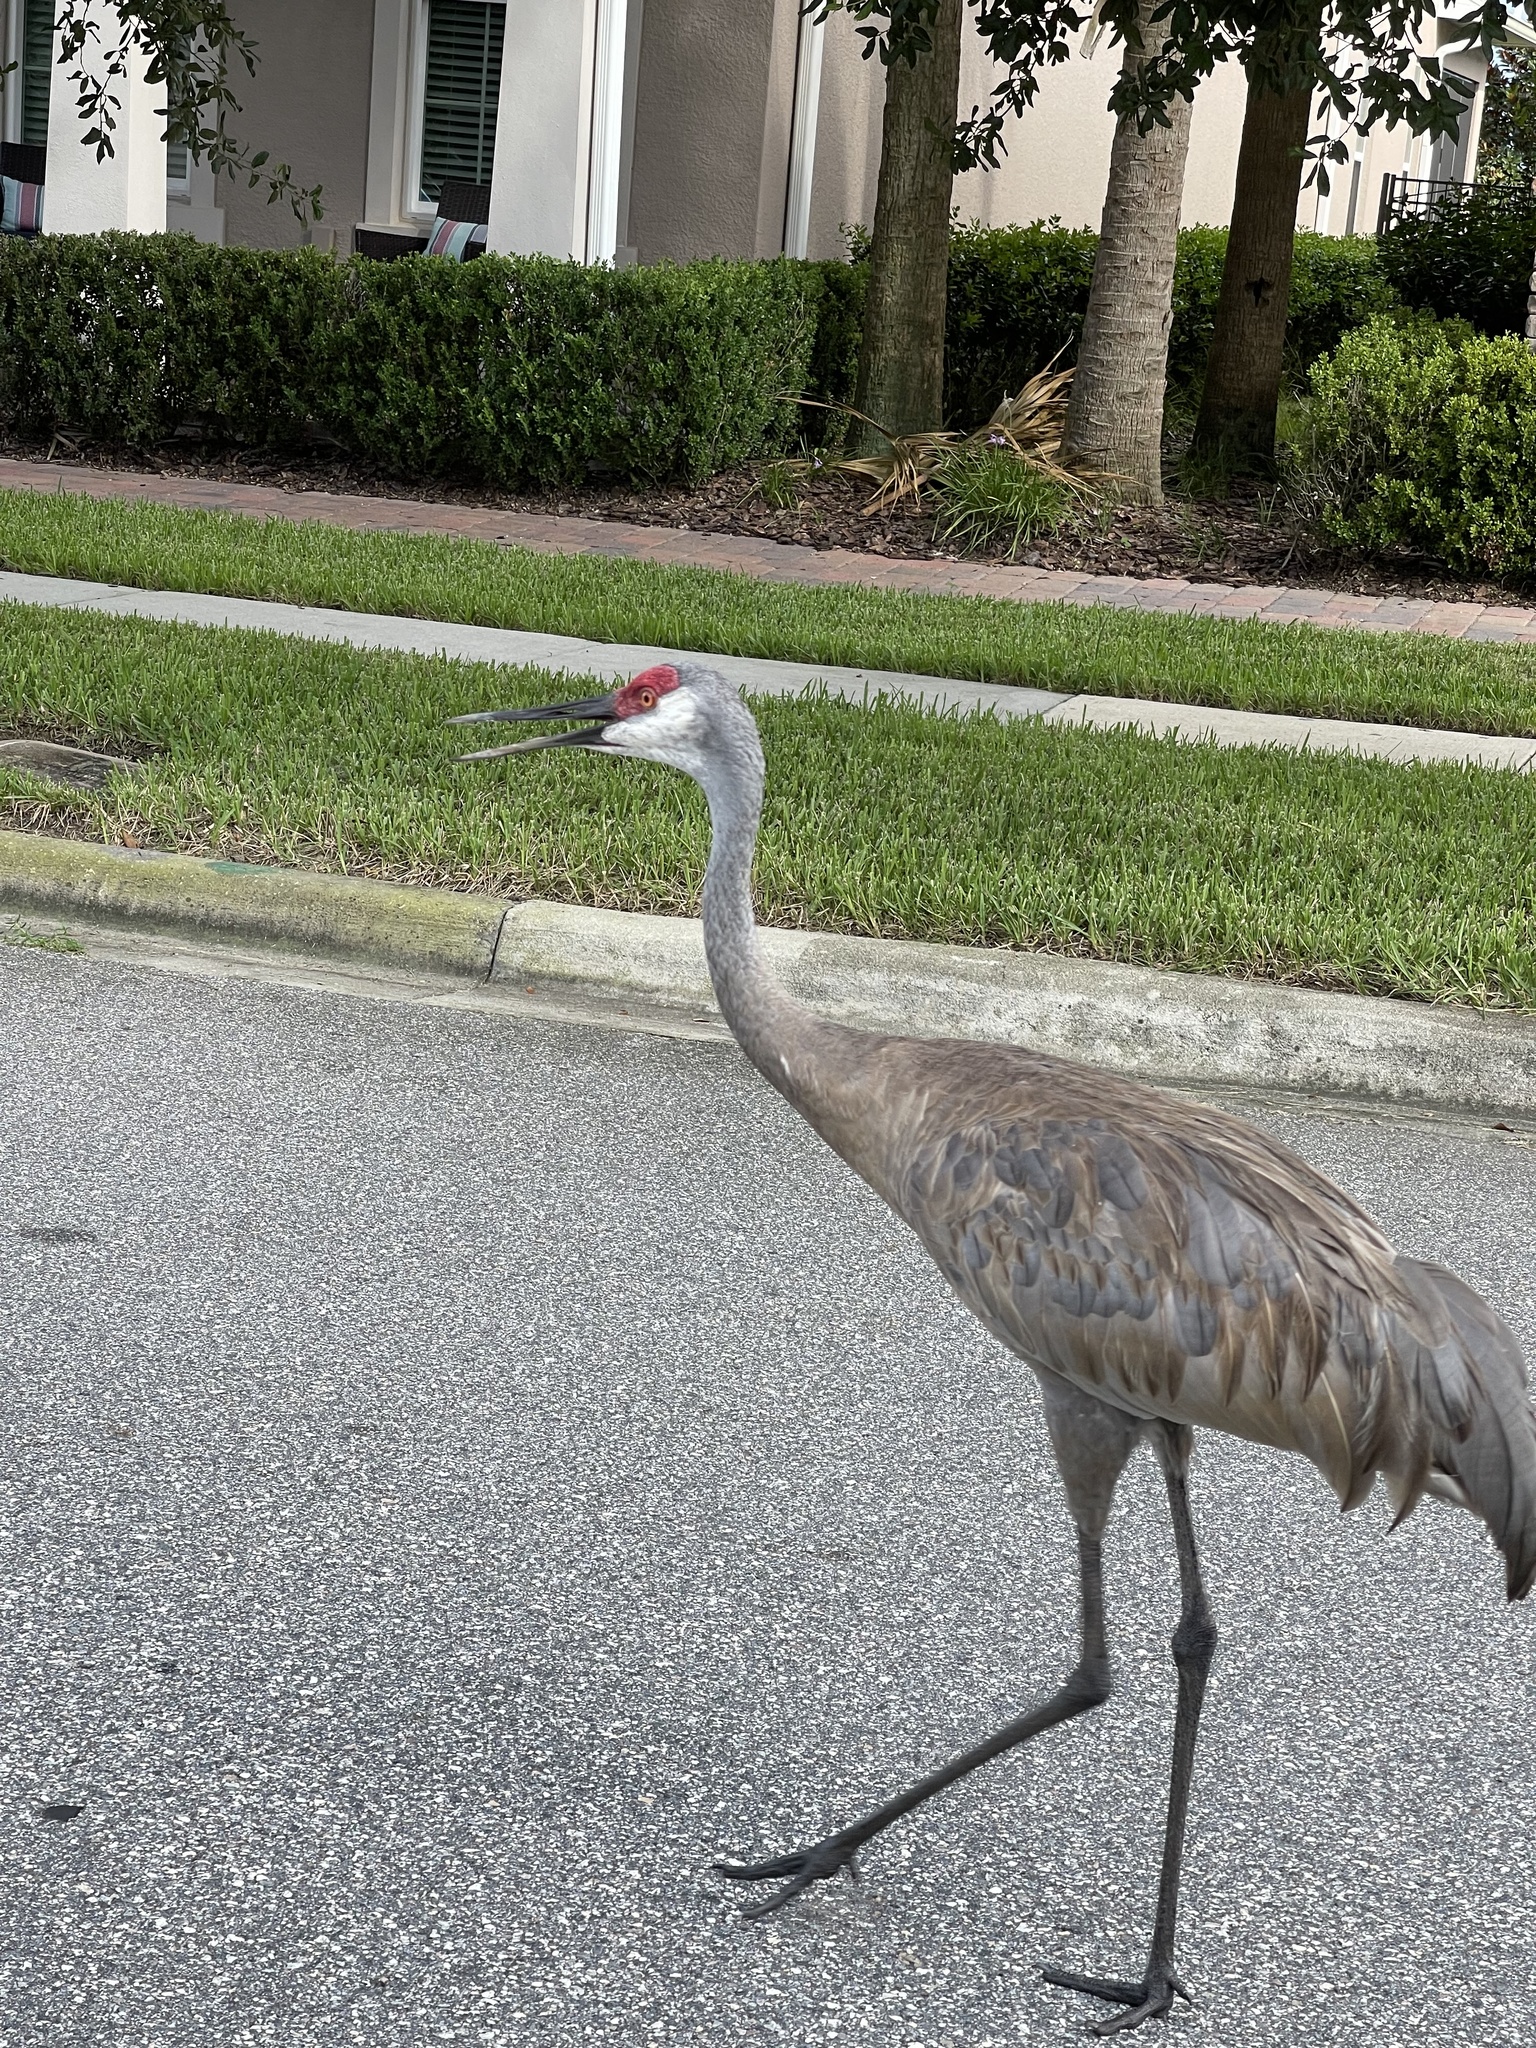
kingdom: Animalia
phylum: Chordata
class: Aves
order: Gruiformes
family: Gruidae
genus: Grus
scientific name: Grus canadensis
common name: Sandhill crane
